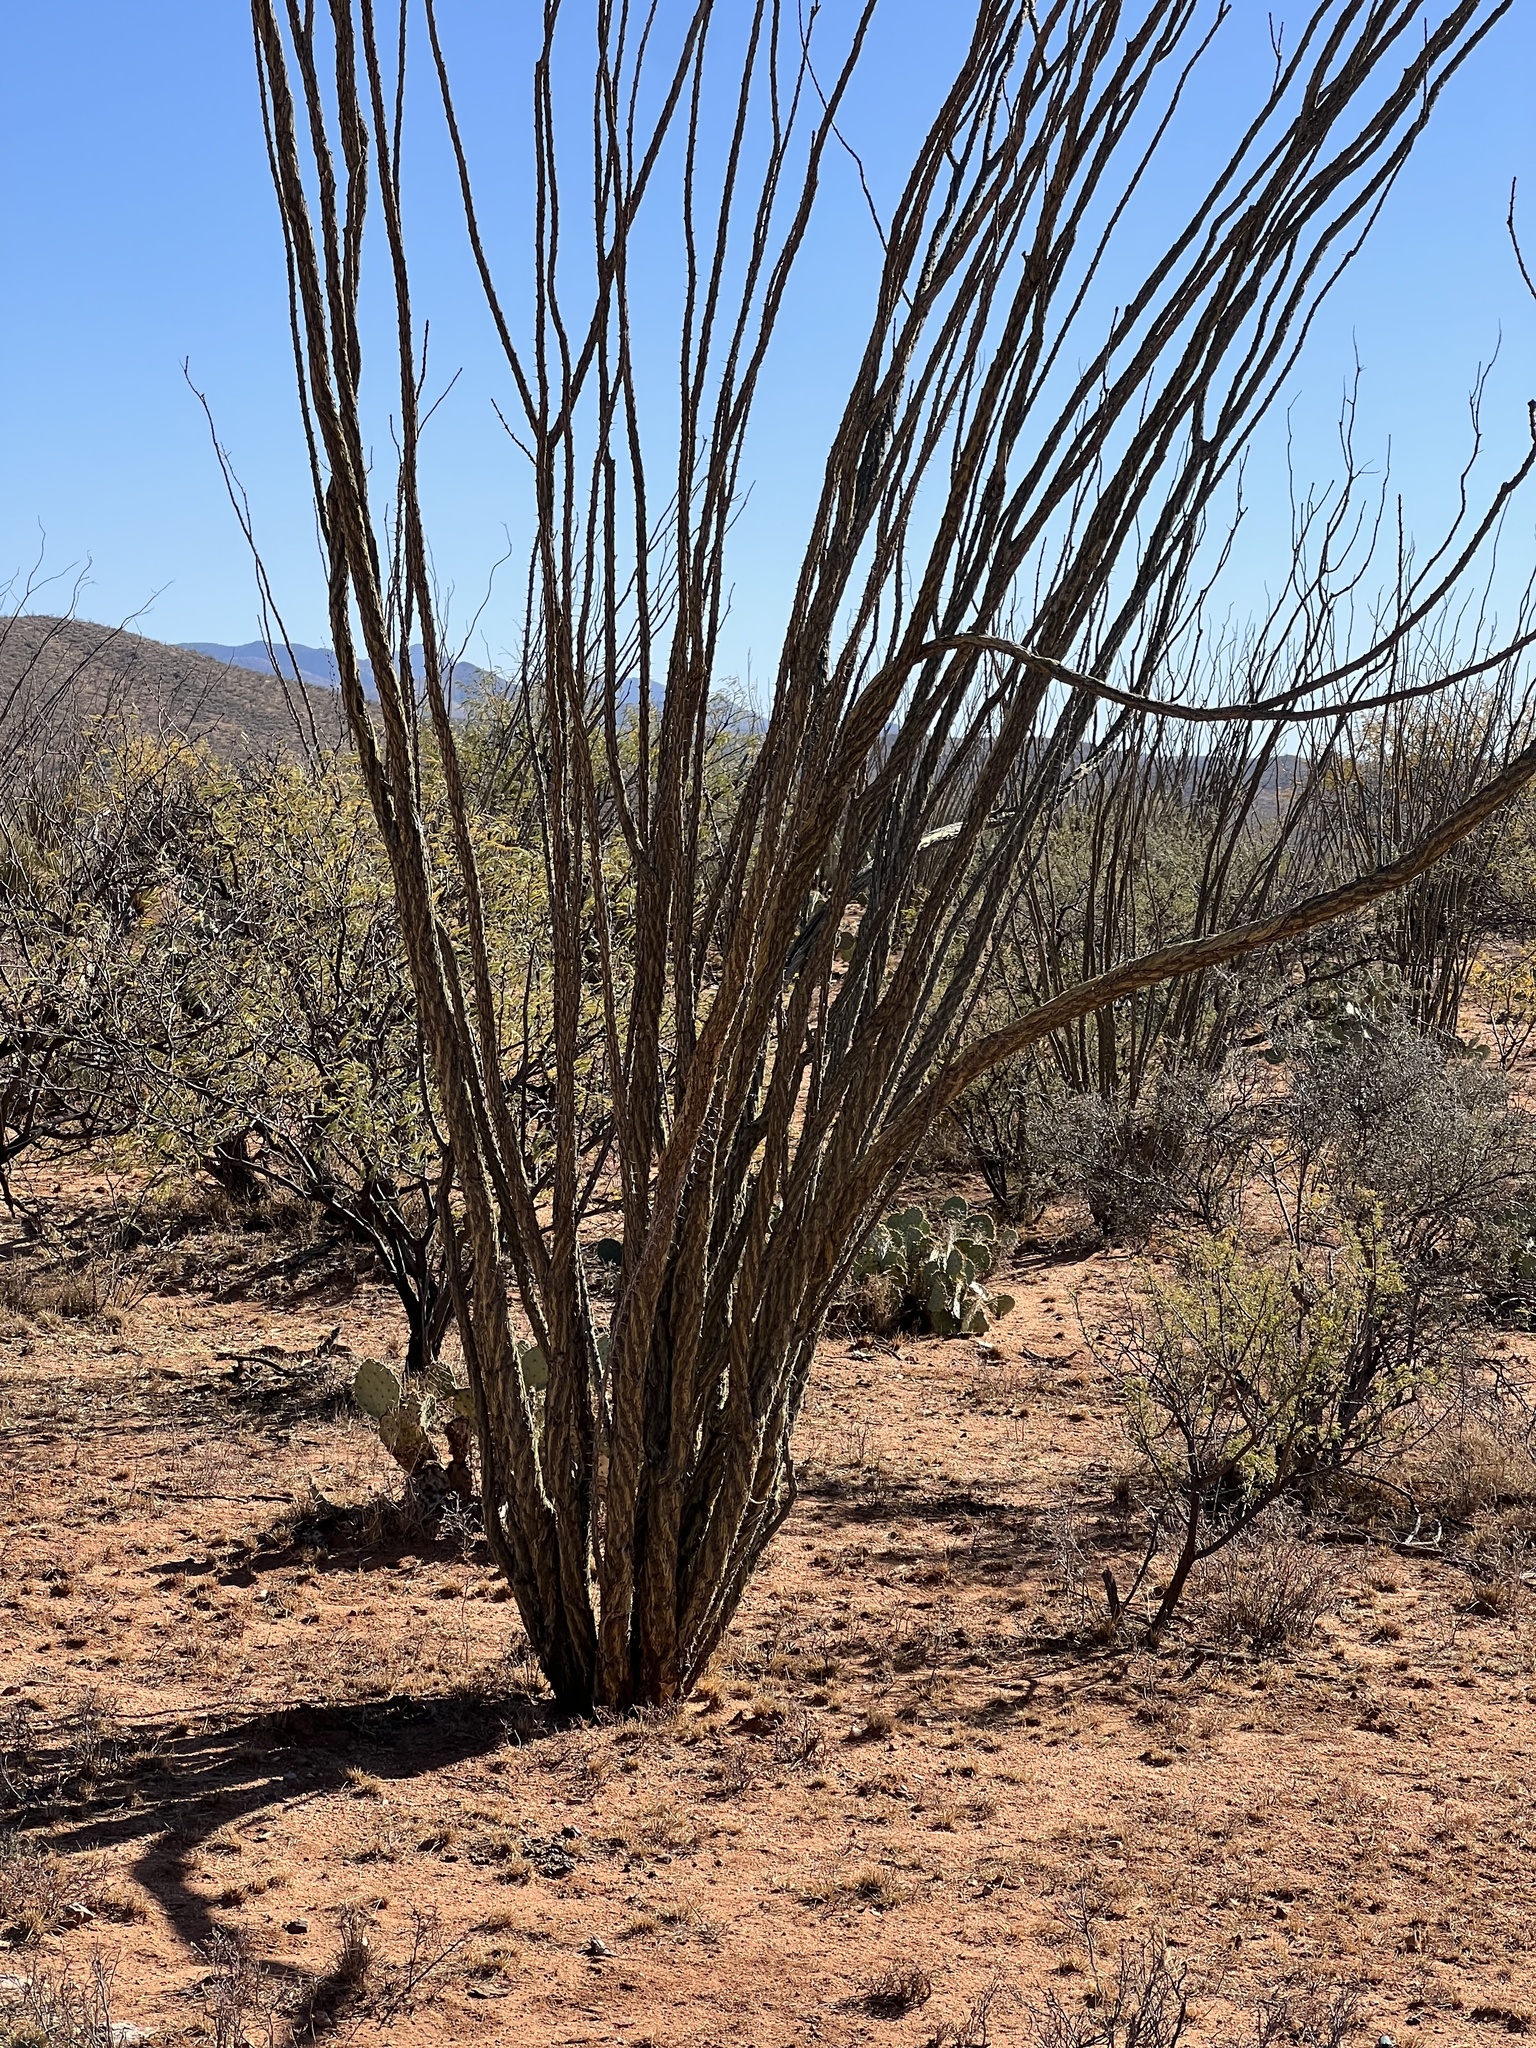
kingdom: Plantae
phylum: Tracheophyta
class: Magnoliopsida
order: Ericales
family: Fouquieriaceae
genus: Fouquieria
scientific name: Fouquieria splendens
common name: Vine-cactus
